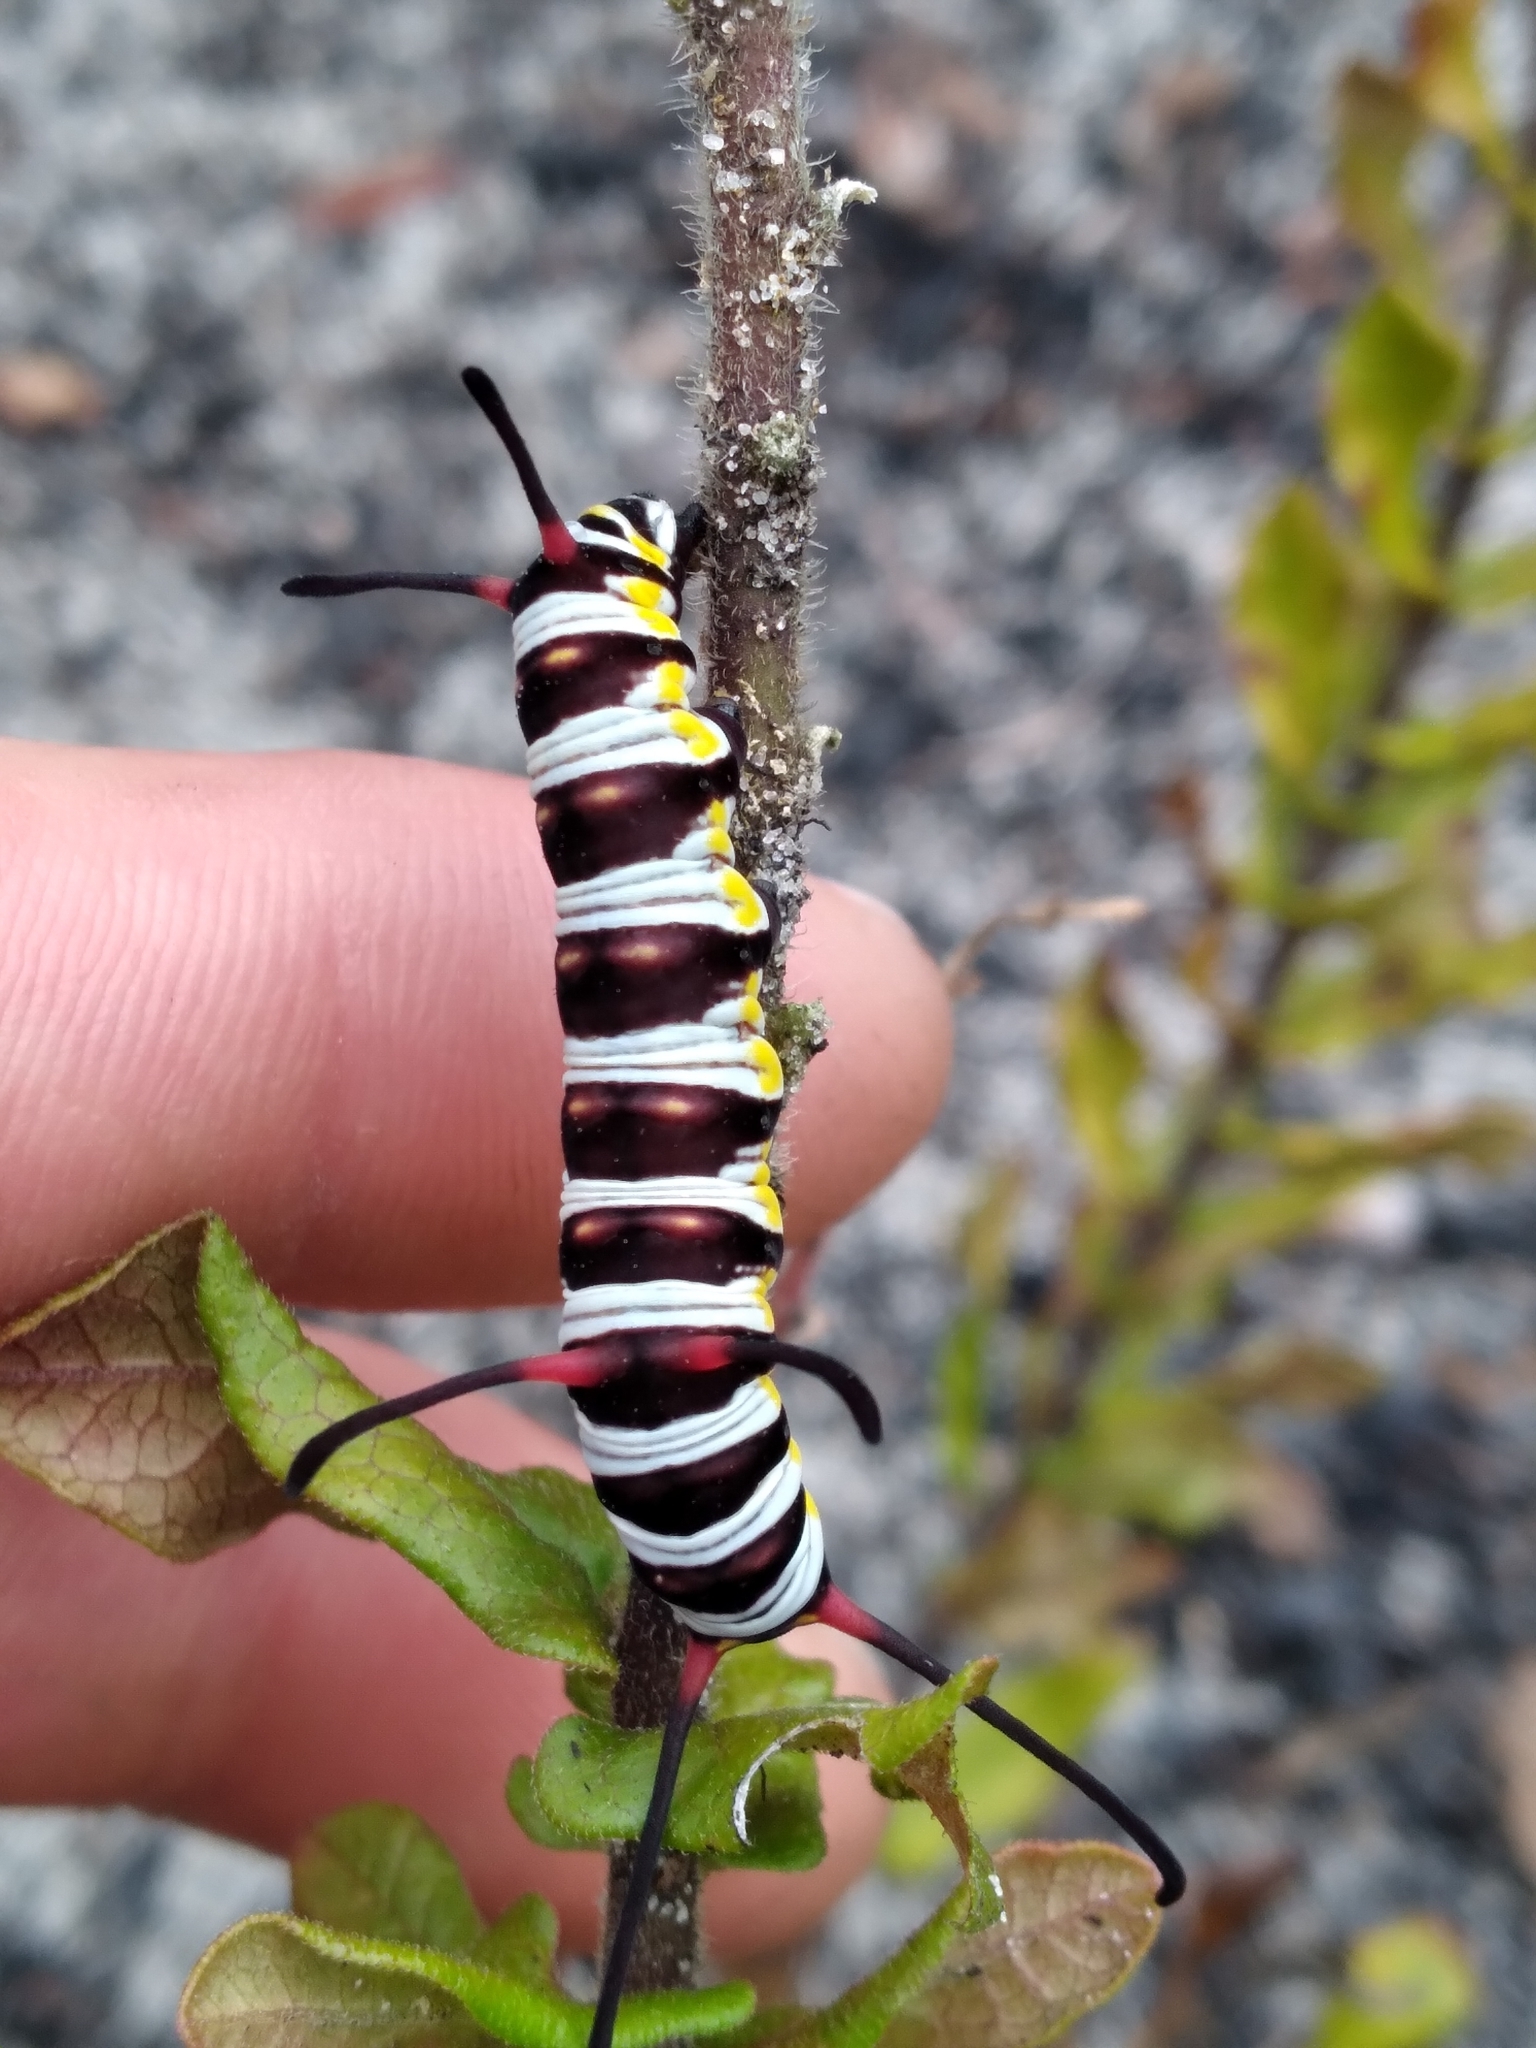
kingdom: Animalia
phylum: Arthropoda
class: Insecta
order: Lepidoptera
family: Nymphalidae
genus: Danaus
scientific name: Danaus gilippus
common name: Queen
